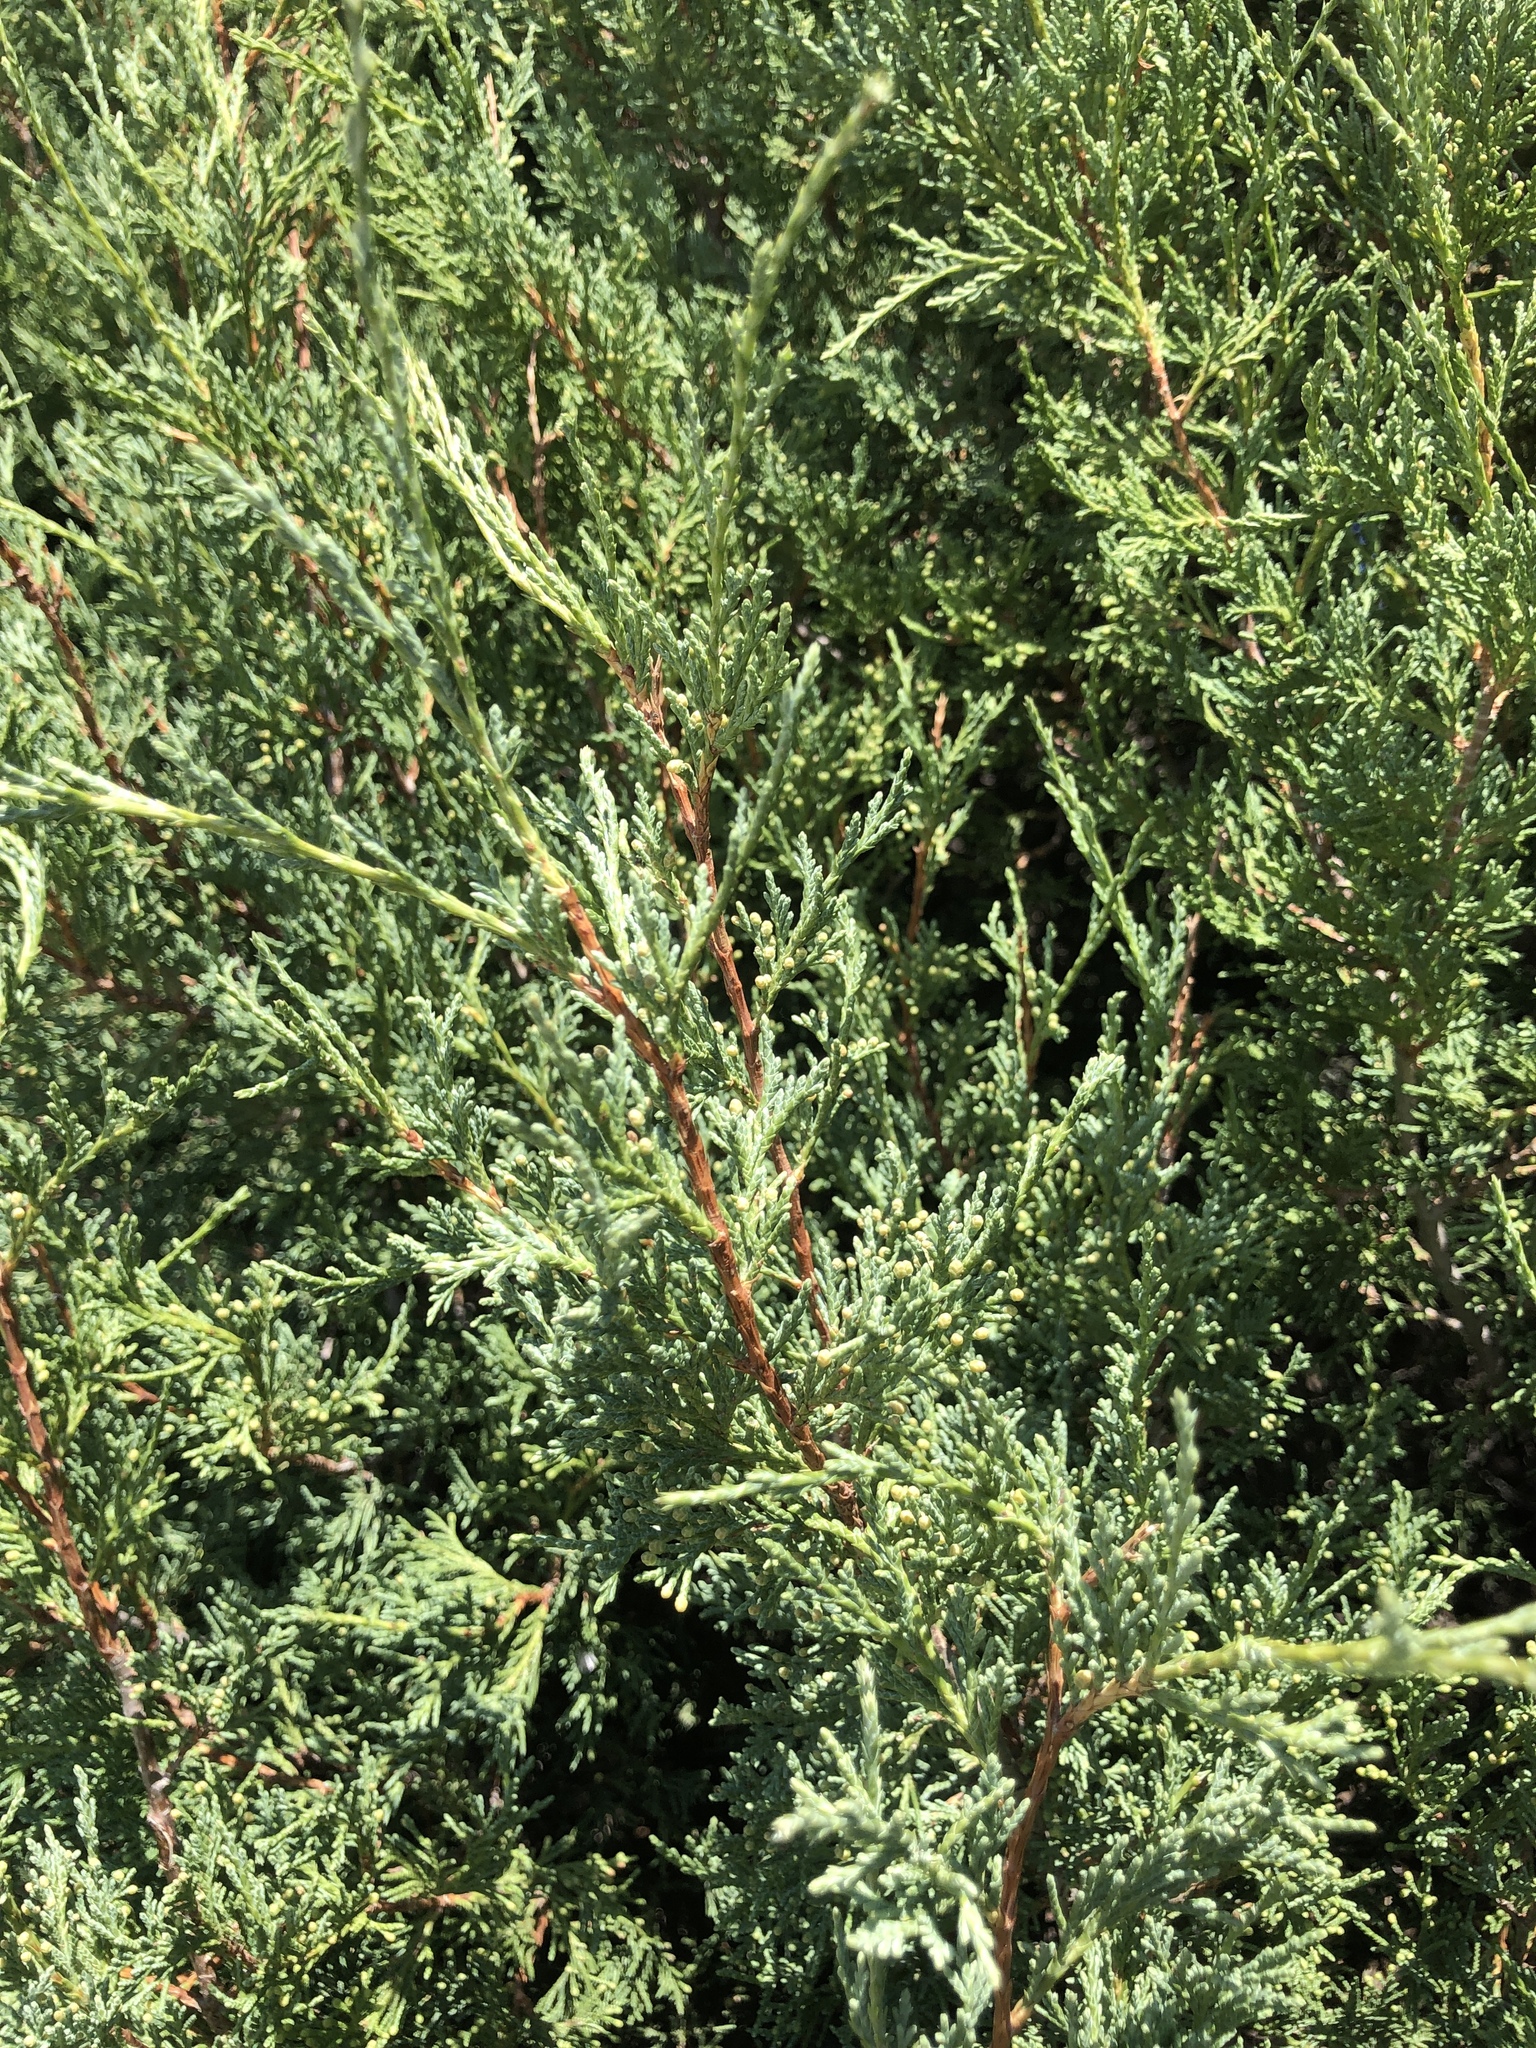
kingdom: Plantae
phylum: Tracheophyta
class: Pinopsida
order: Pinales
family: Cupressaceae
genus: Juniperus
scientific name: Juniperus scopulorum
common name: Rocky mountain juniper
